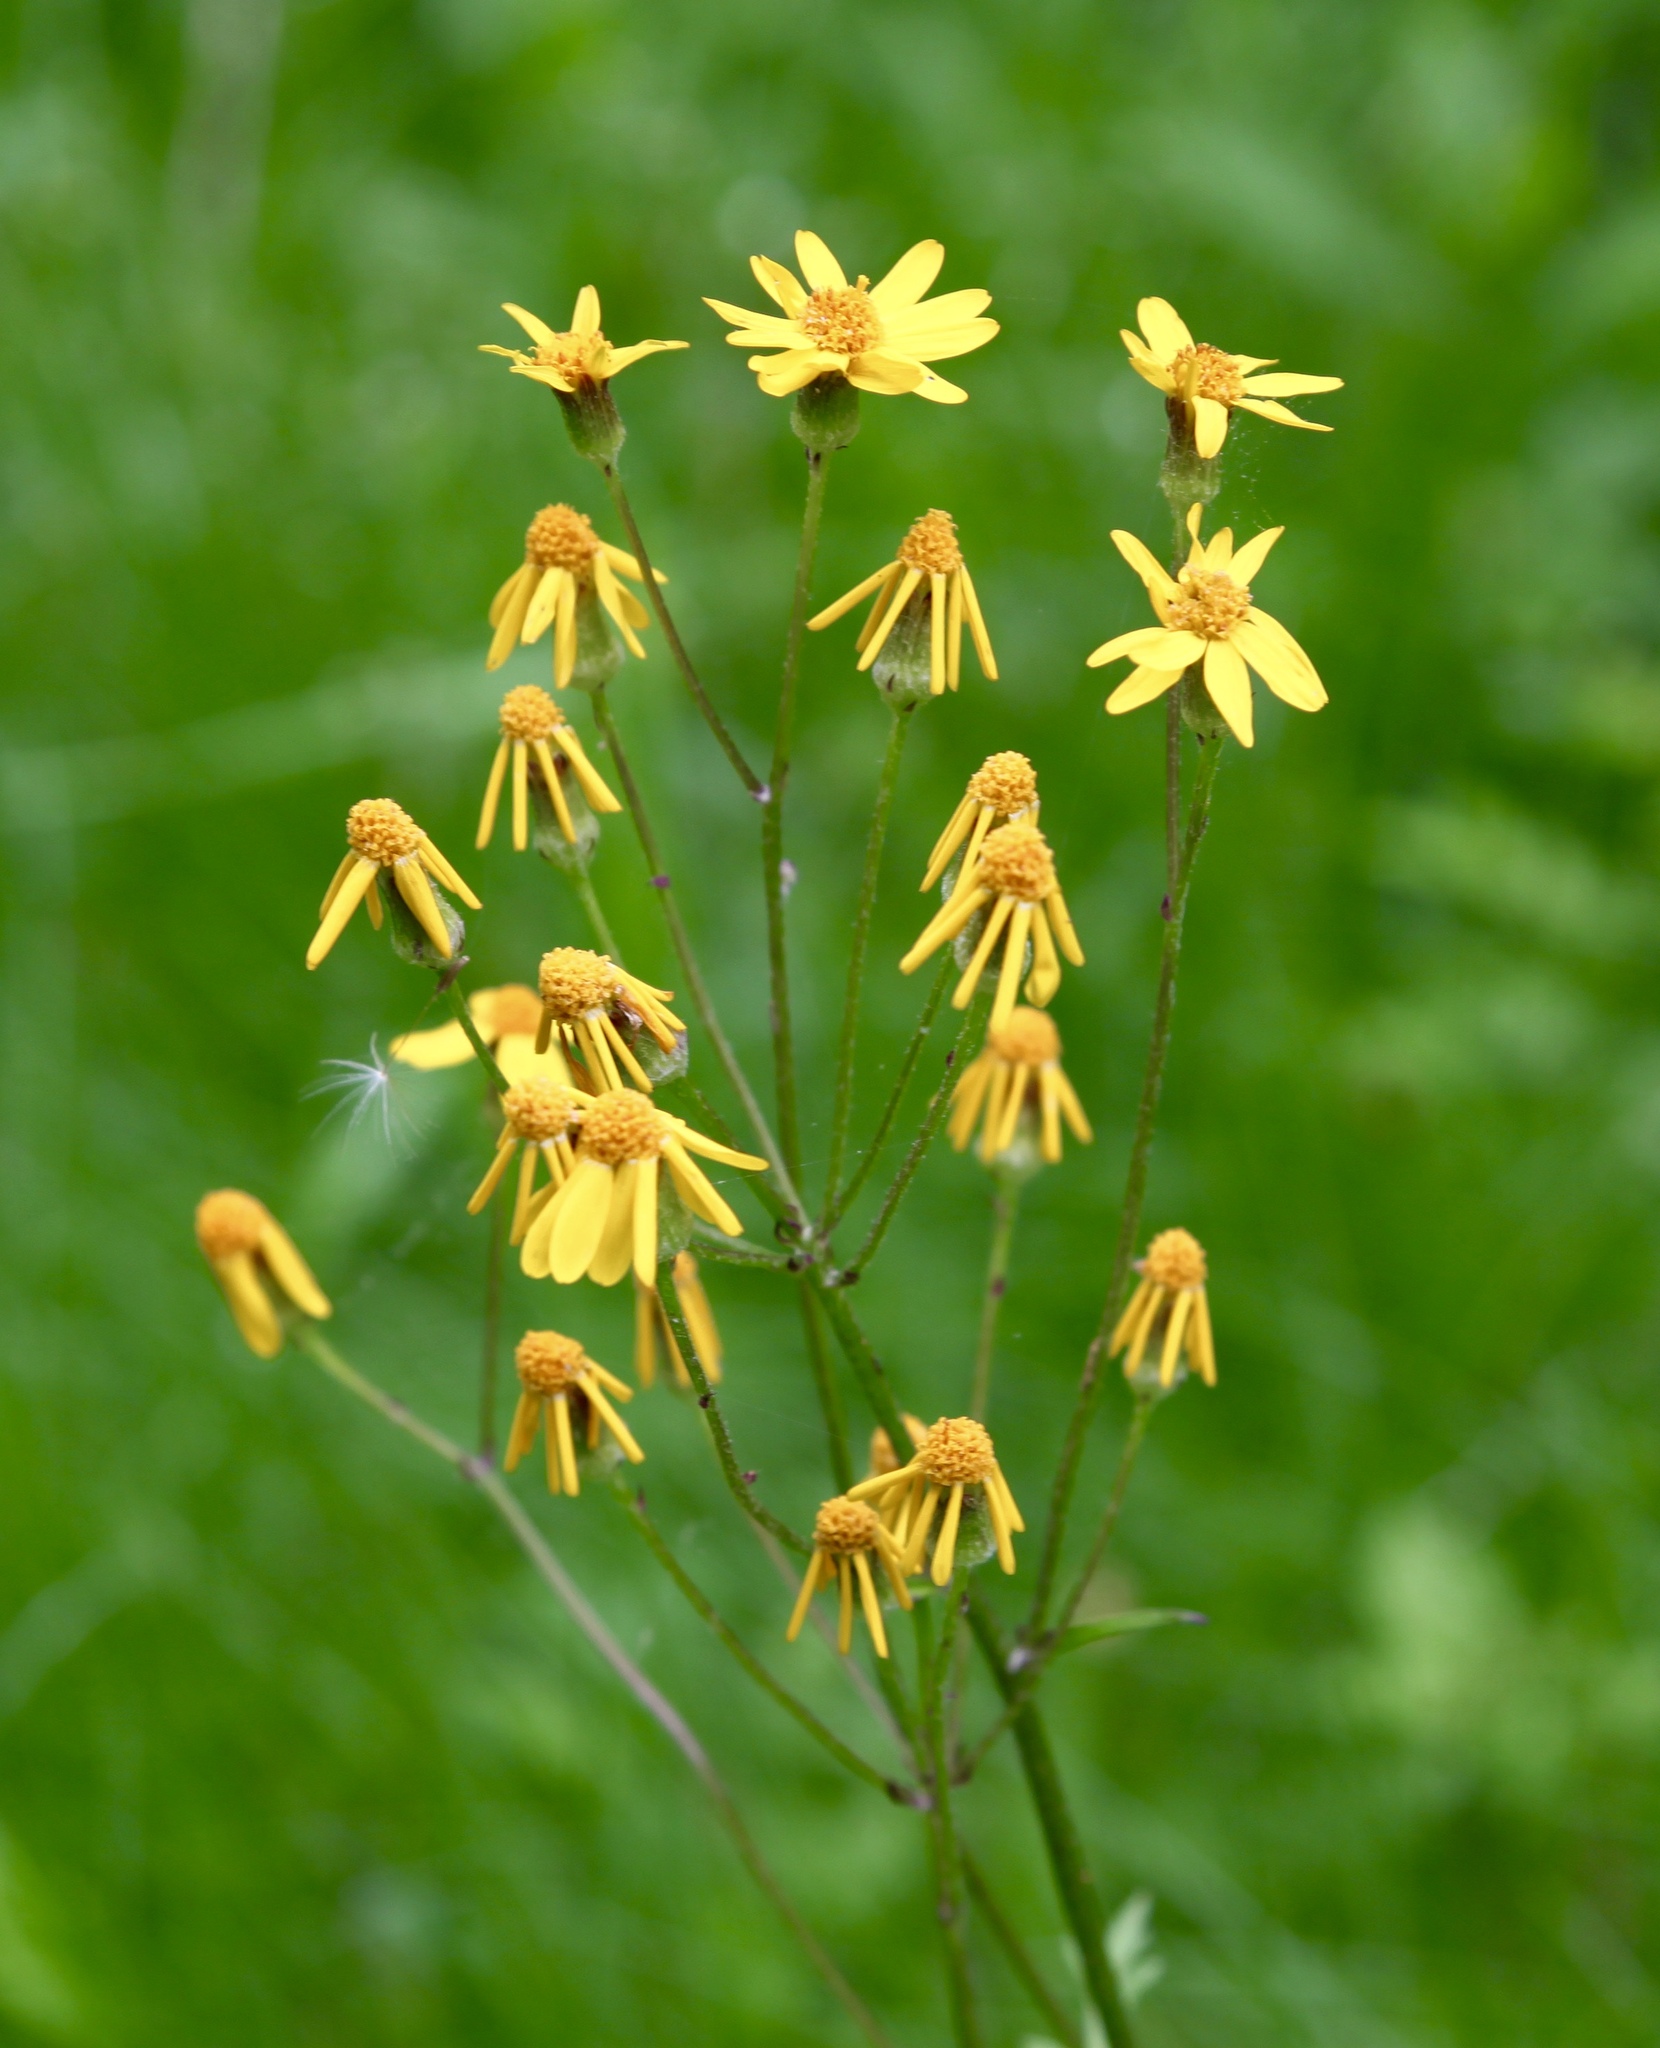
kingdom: Plantae
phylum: Tracheophyta
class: Magnoliopsida
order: Asterales
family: Asteraceae
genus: Packera
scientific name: Packera aurea
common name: Golden groundsel
